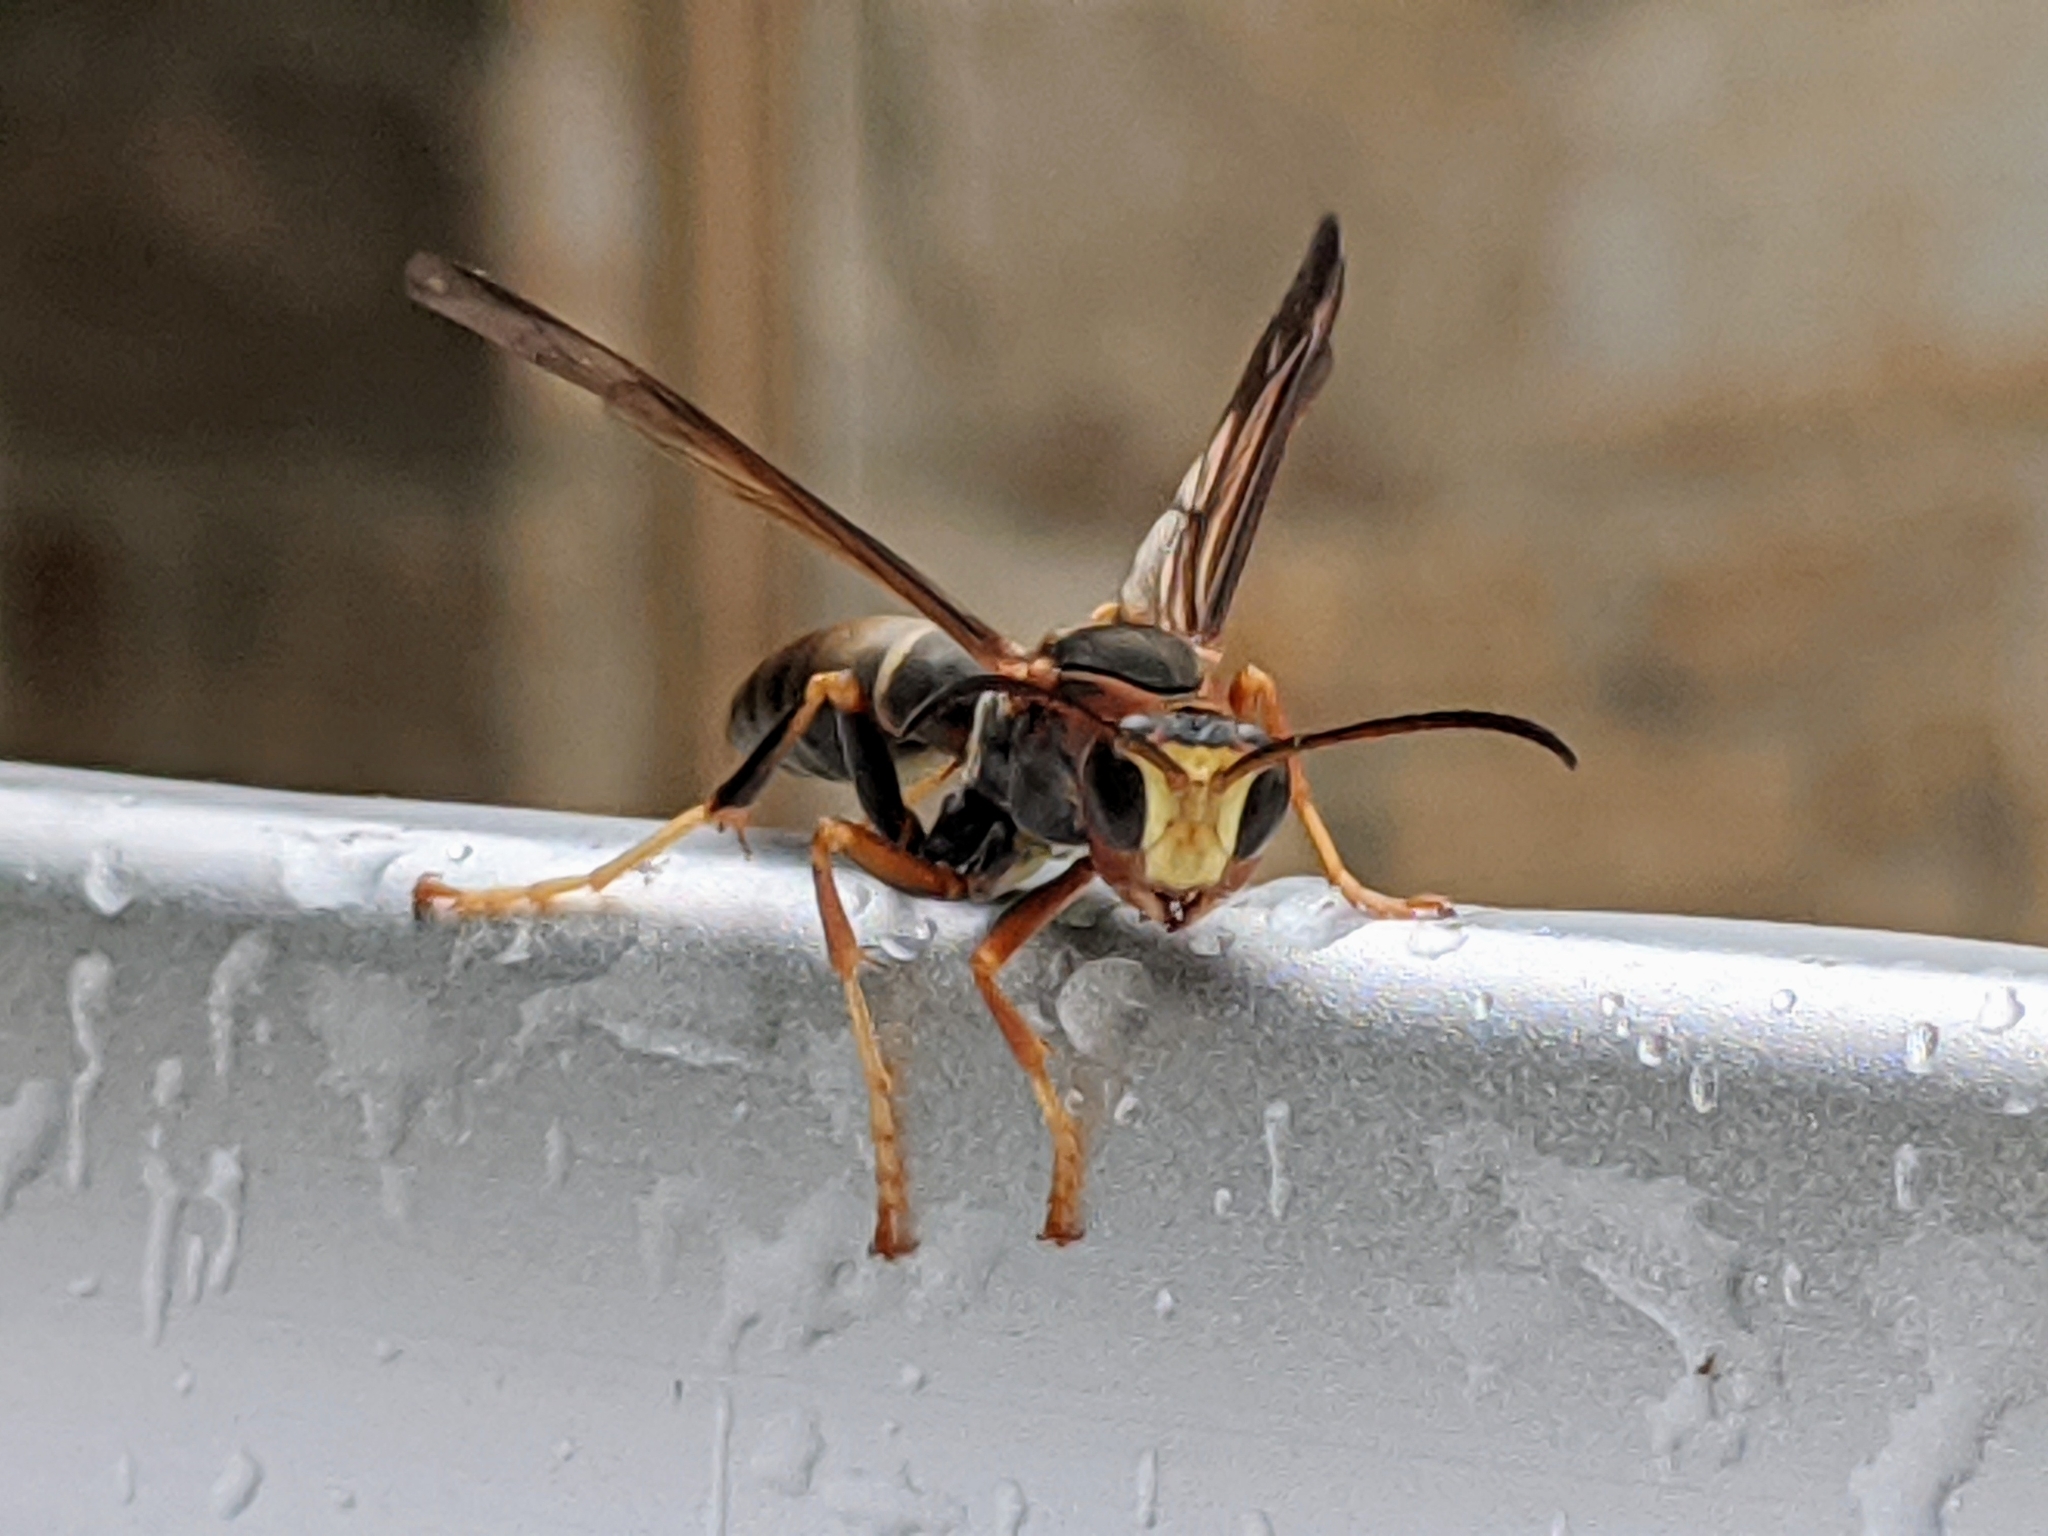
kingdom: Animalia
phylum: Arthropoda
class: Insecta
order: Hymenoptera
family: Eumenidae
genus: Polistes
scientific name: Polistes fuscatus
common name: Dark paper wasp
